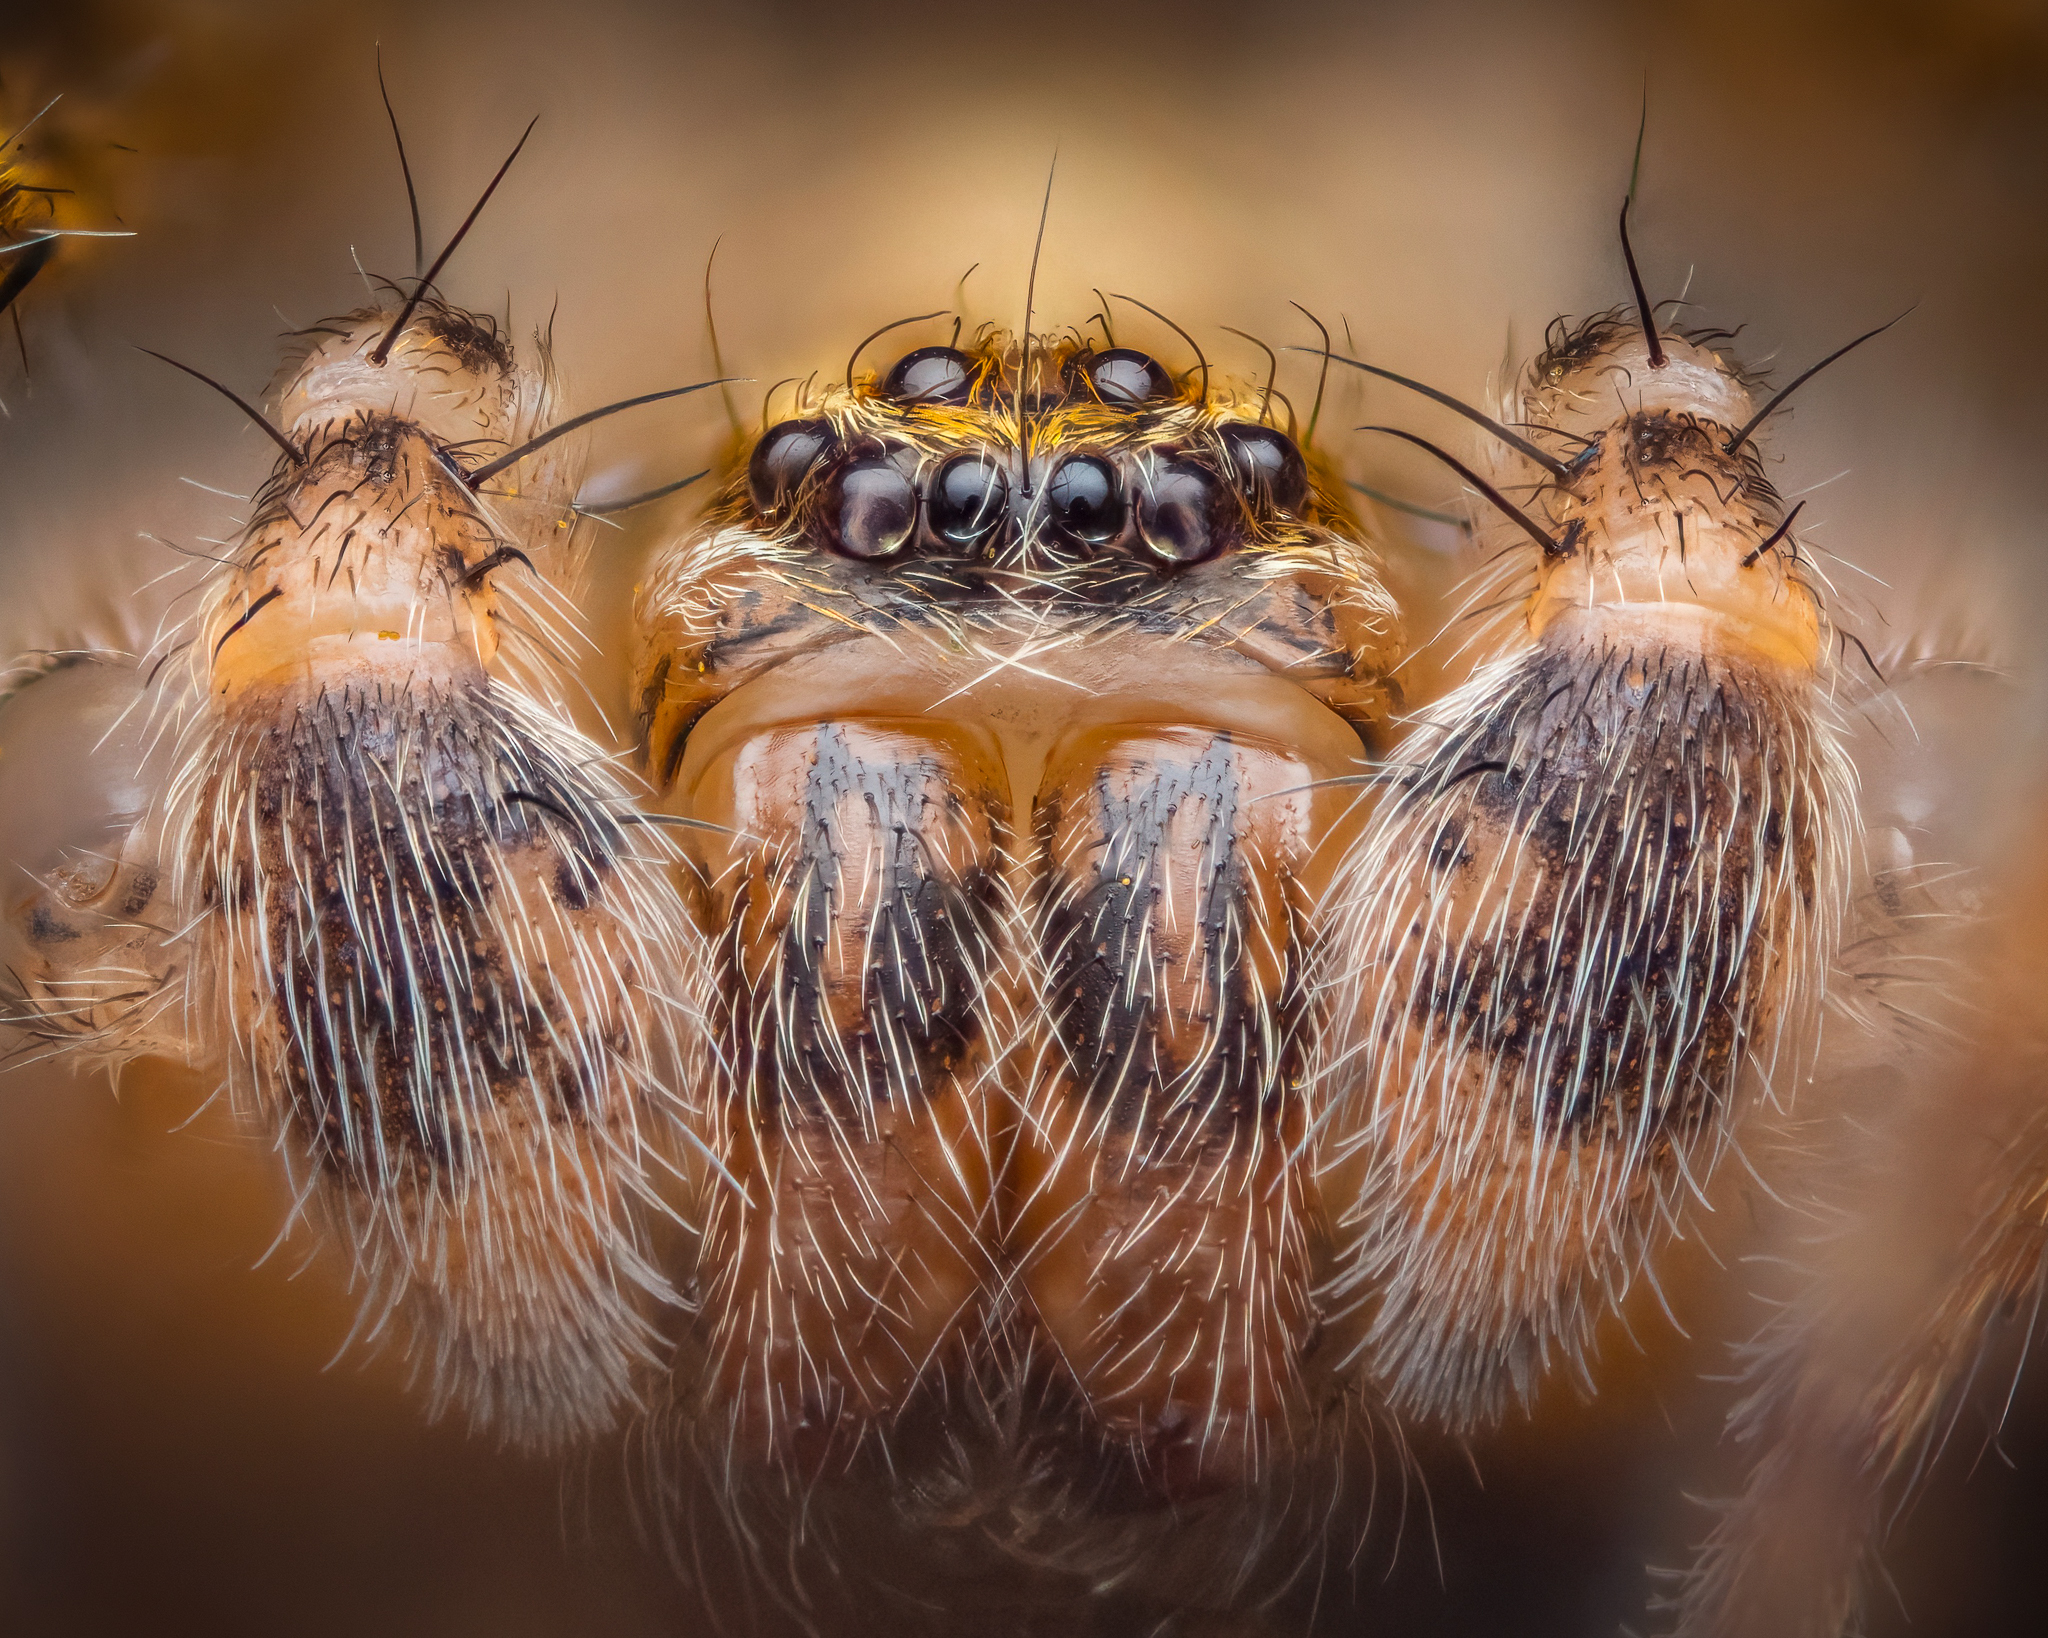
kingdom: Animalia
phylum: Arthropoda
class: Arachnida
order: Araneae
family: Anyphaenidae
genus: Anyphaena
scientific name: Anyphaena accentuata
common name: Buzzing spider
